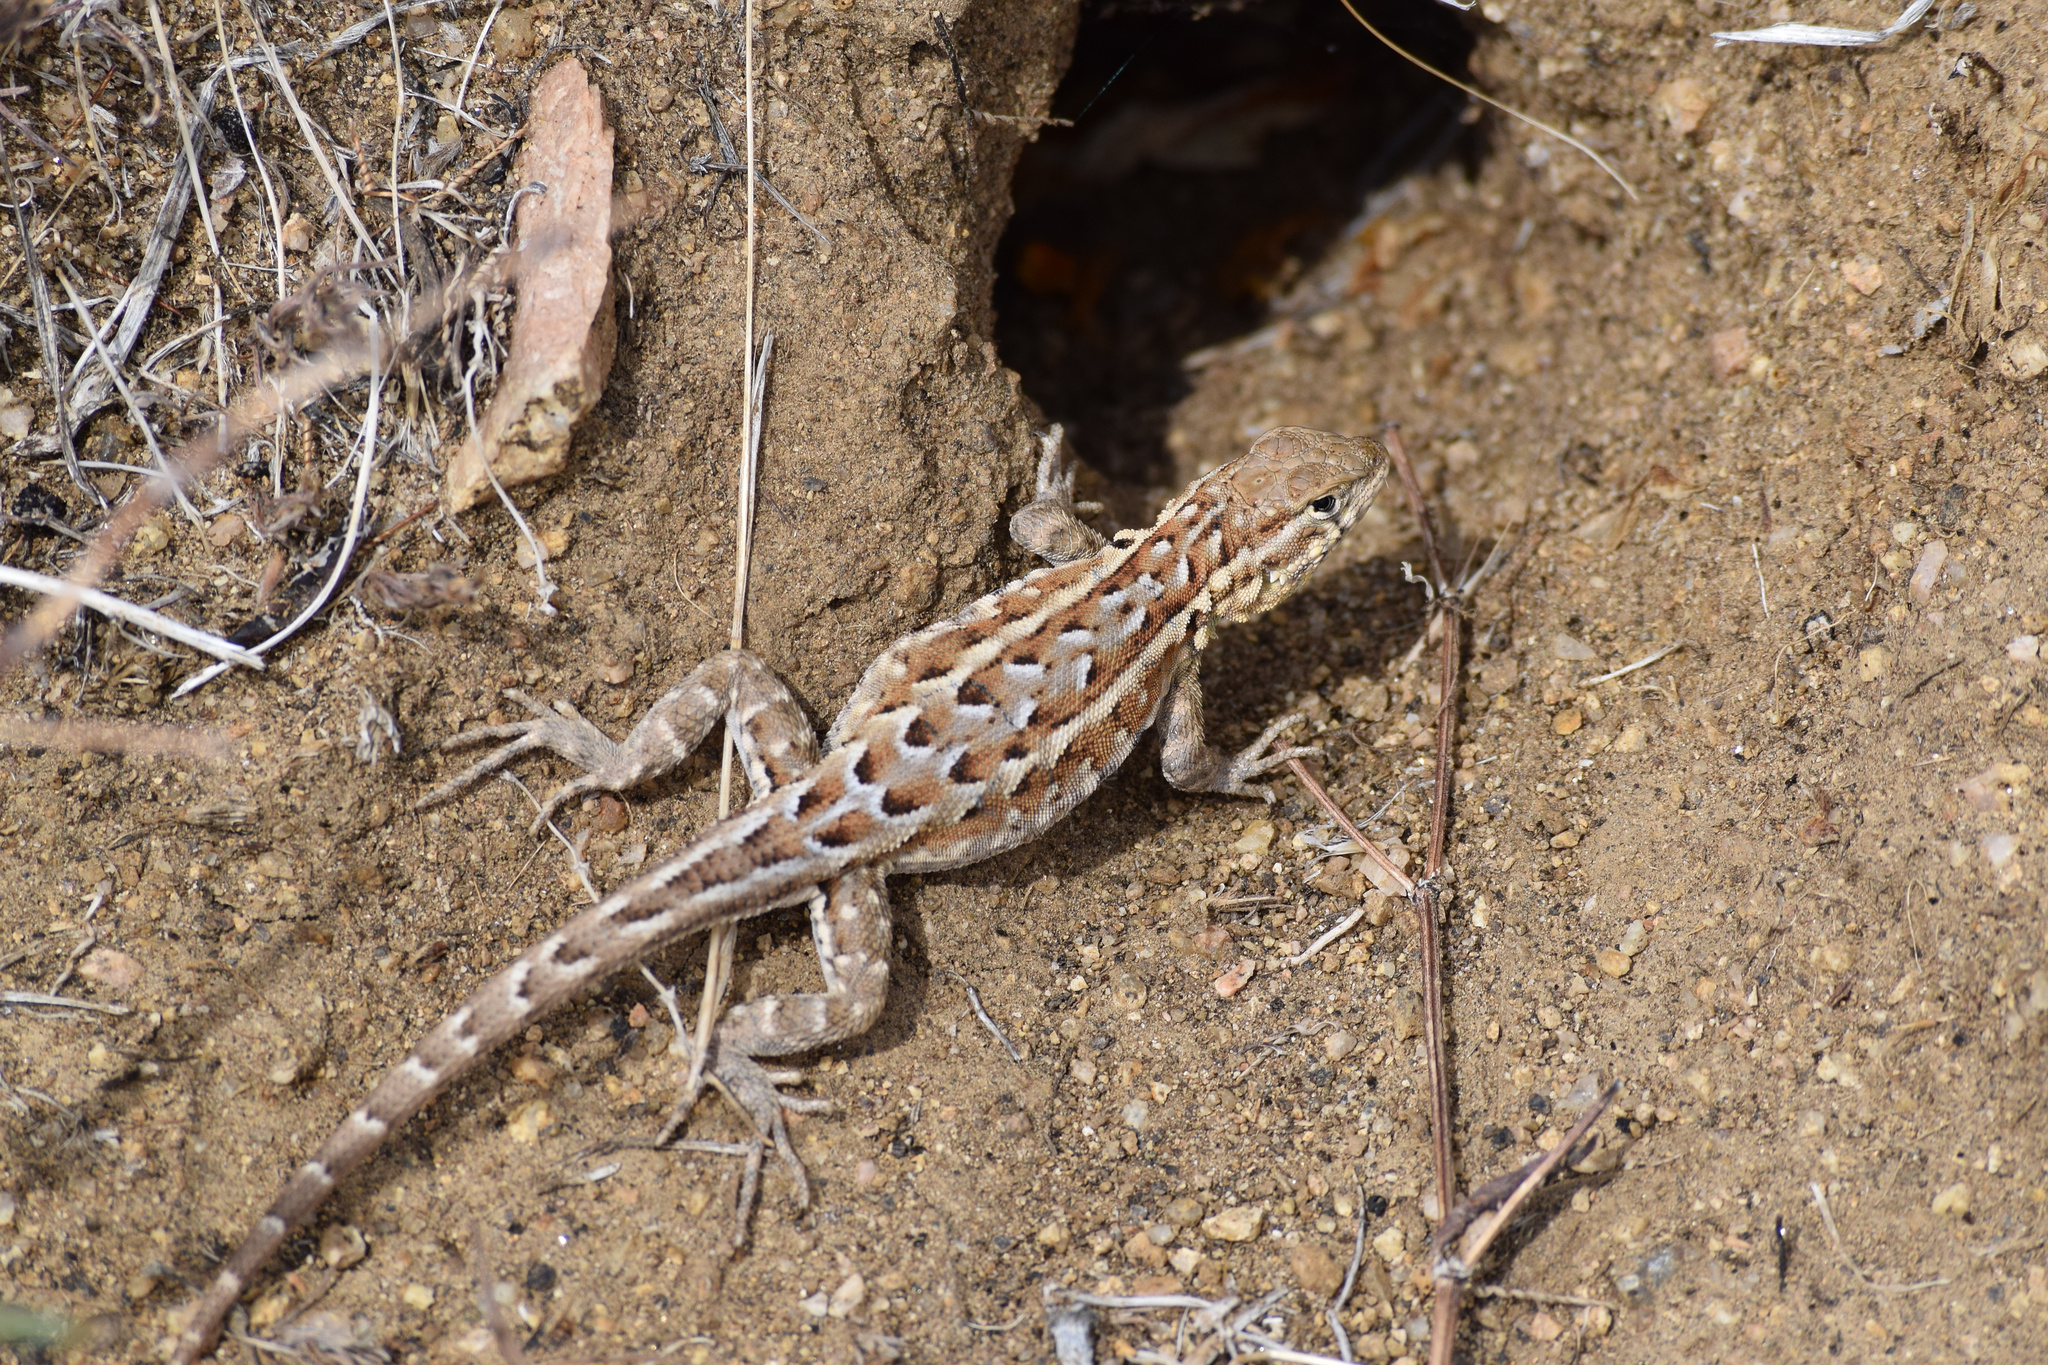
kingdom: Animalia
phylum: Chordata
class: Squamata
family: Phrynosomatidae
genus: Uta
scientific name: Uta stansburiana
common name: Side-blotched lizard
